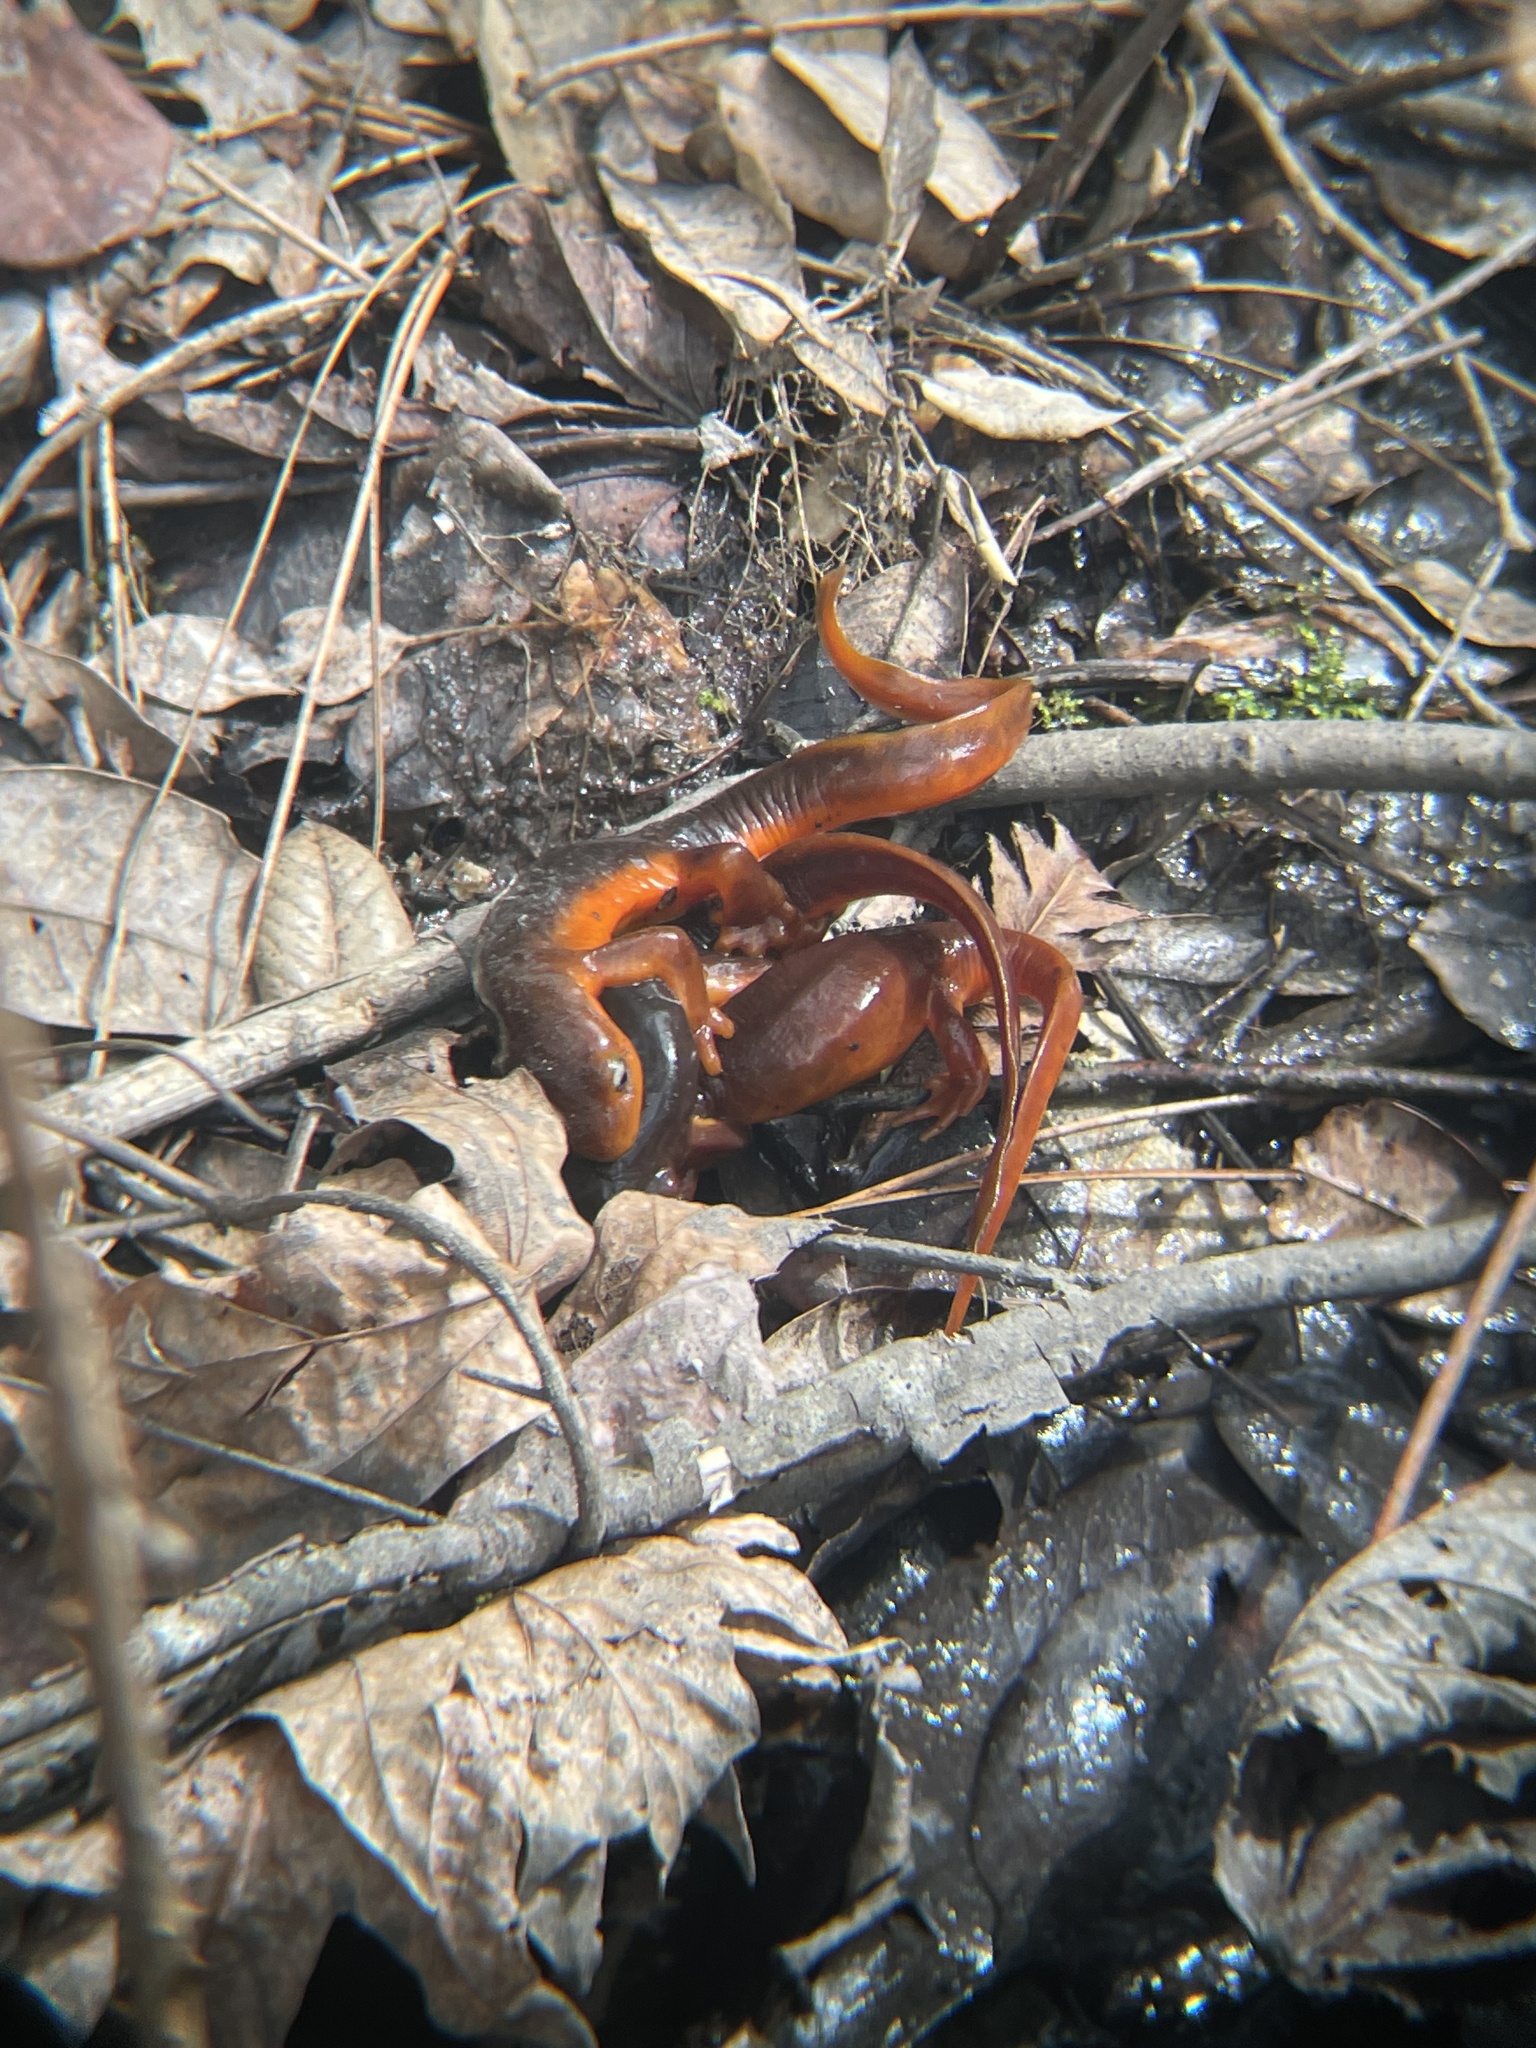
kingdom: Animalia
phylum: Chordata
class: Amphibia
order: Caudata
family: Salamandridae
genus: Taricha
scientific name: Taricha sierrae
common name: Sierra newt
